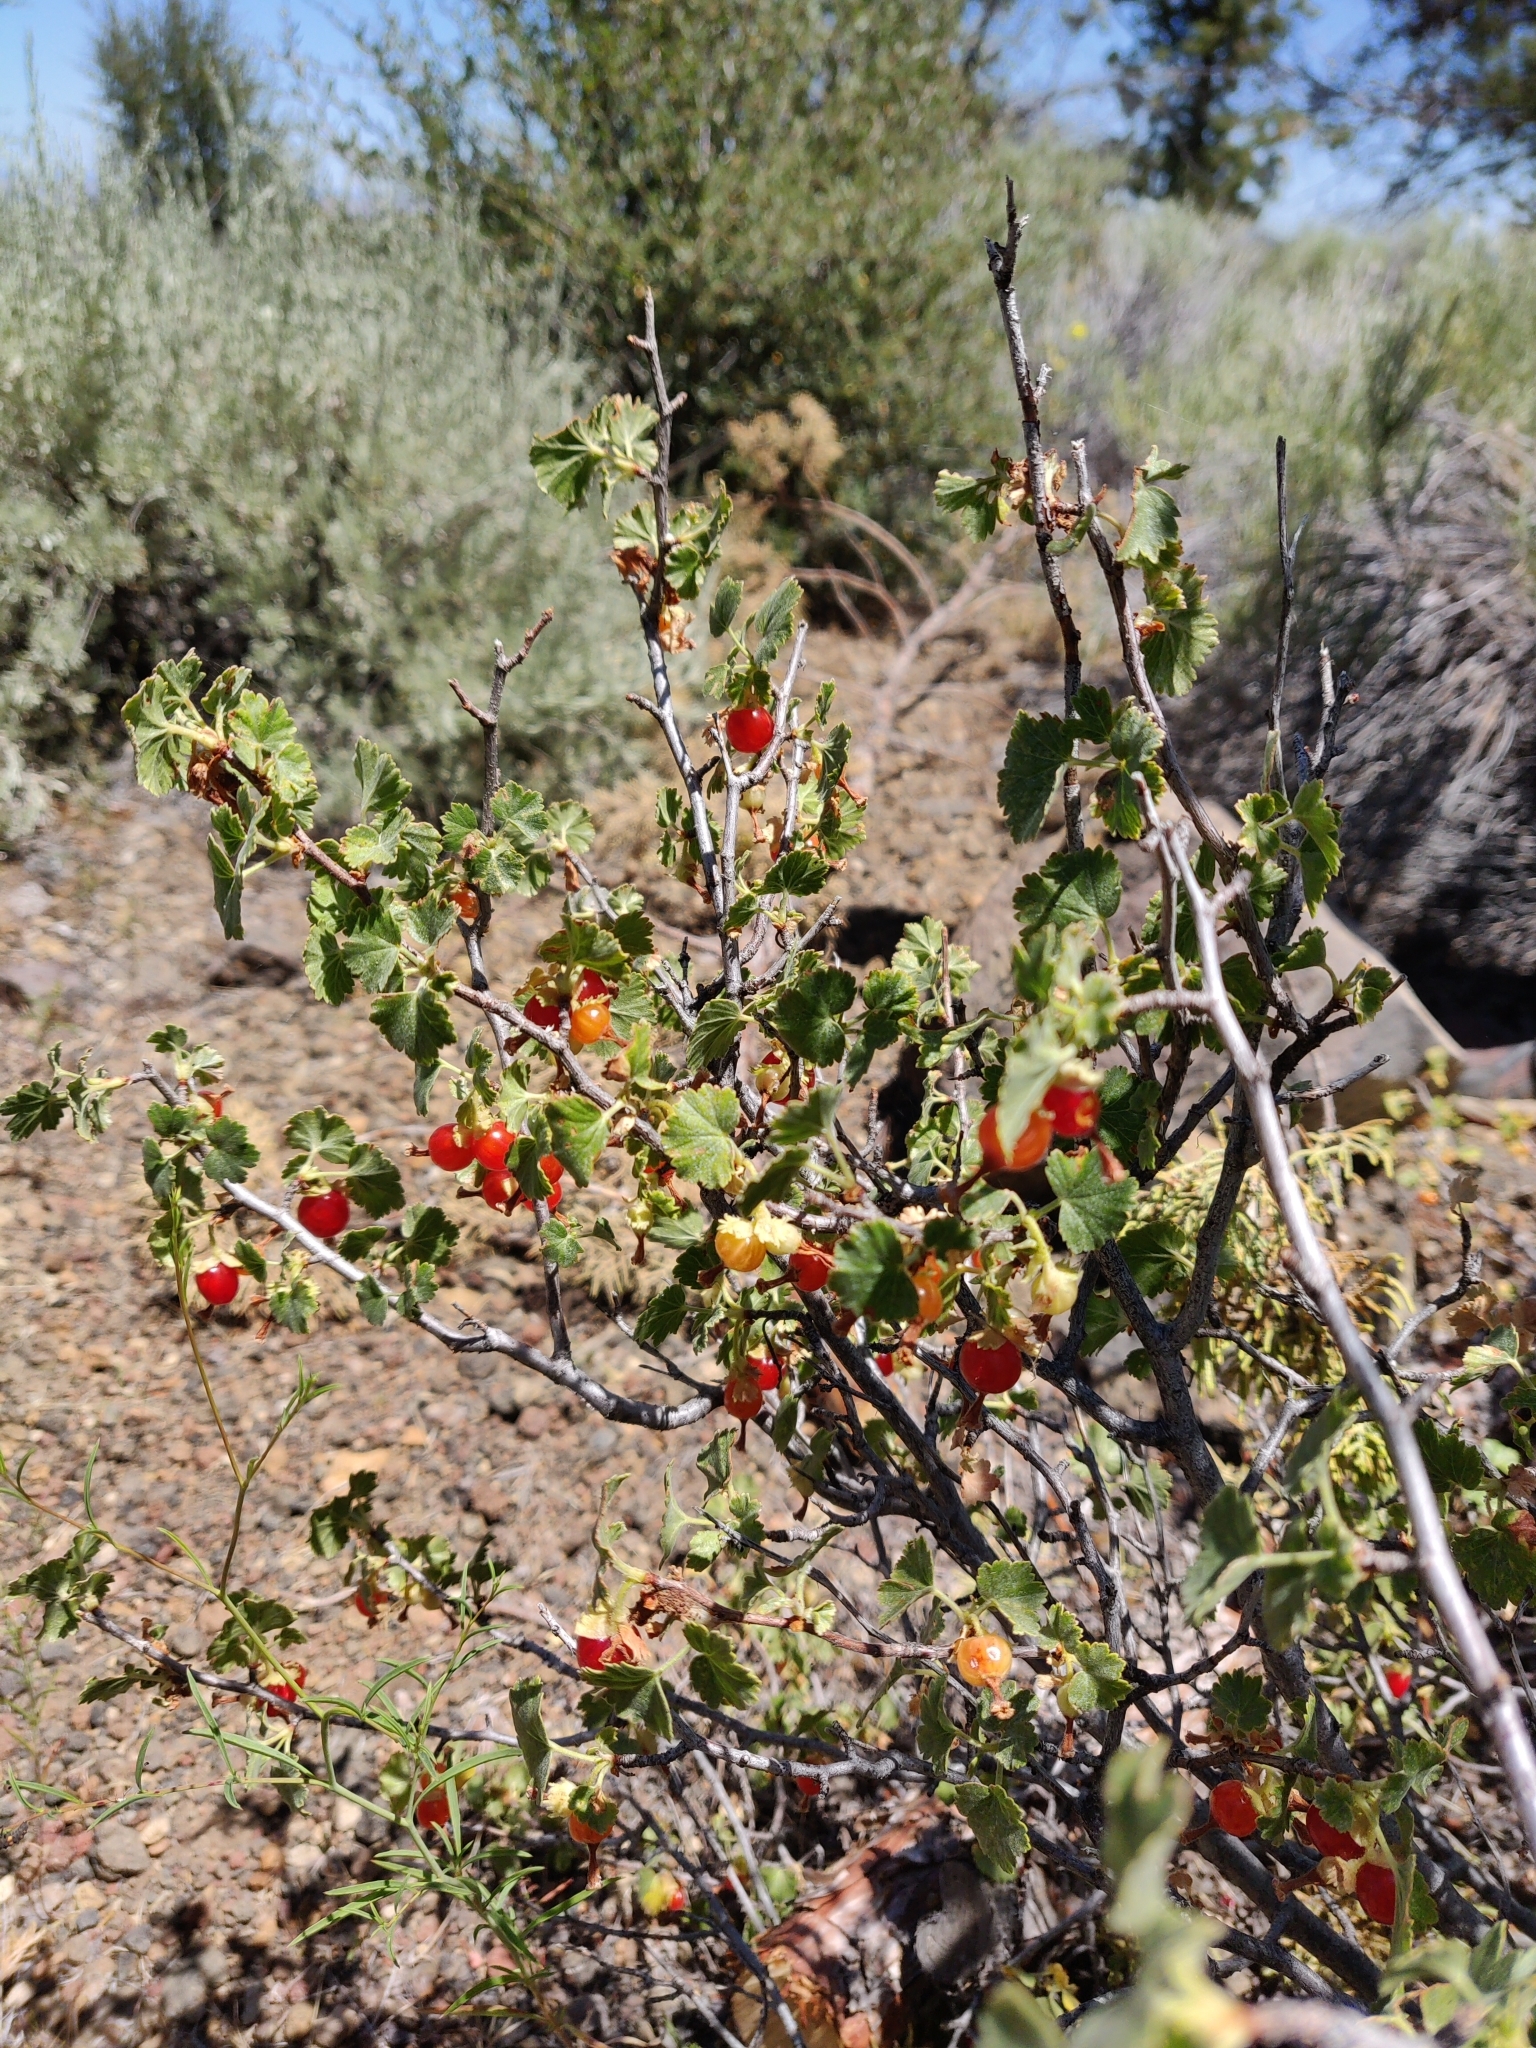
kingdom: Plantae
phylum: Tracheophyta
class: Magnoliopsida
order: Saxifragales
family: Grossulariaceae
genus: Ribes
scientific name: Ribes cereum
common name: Wax currant
